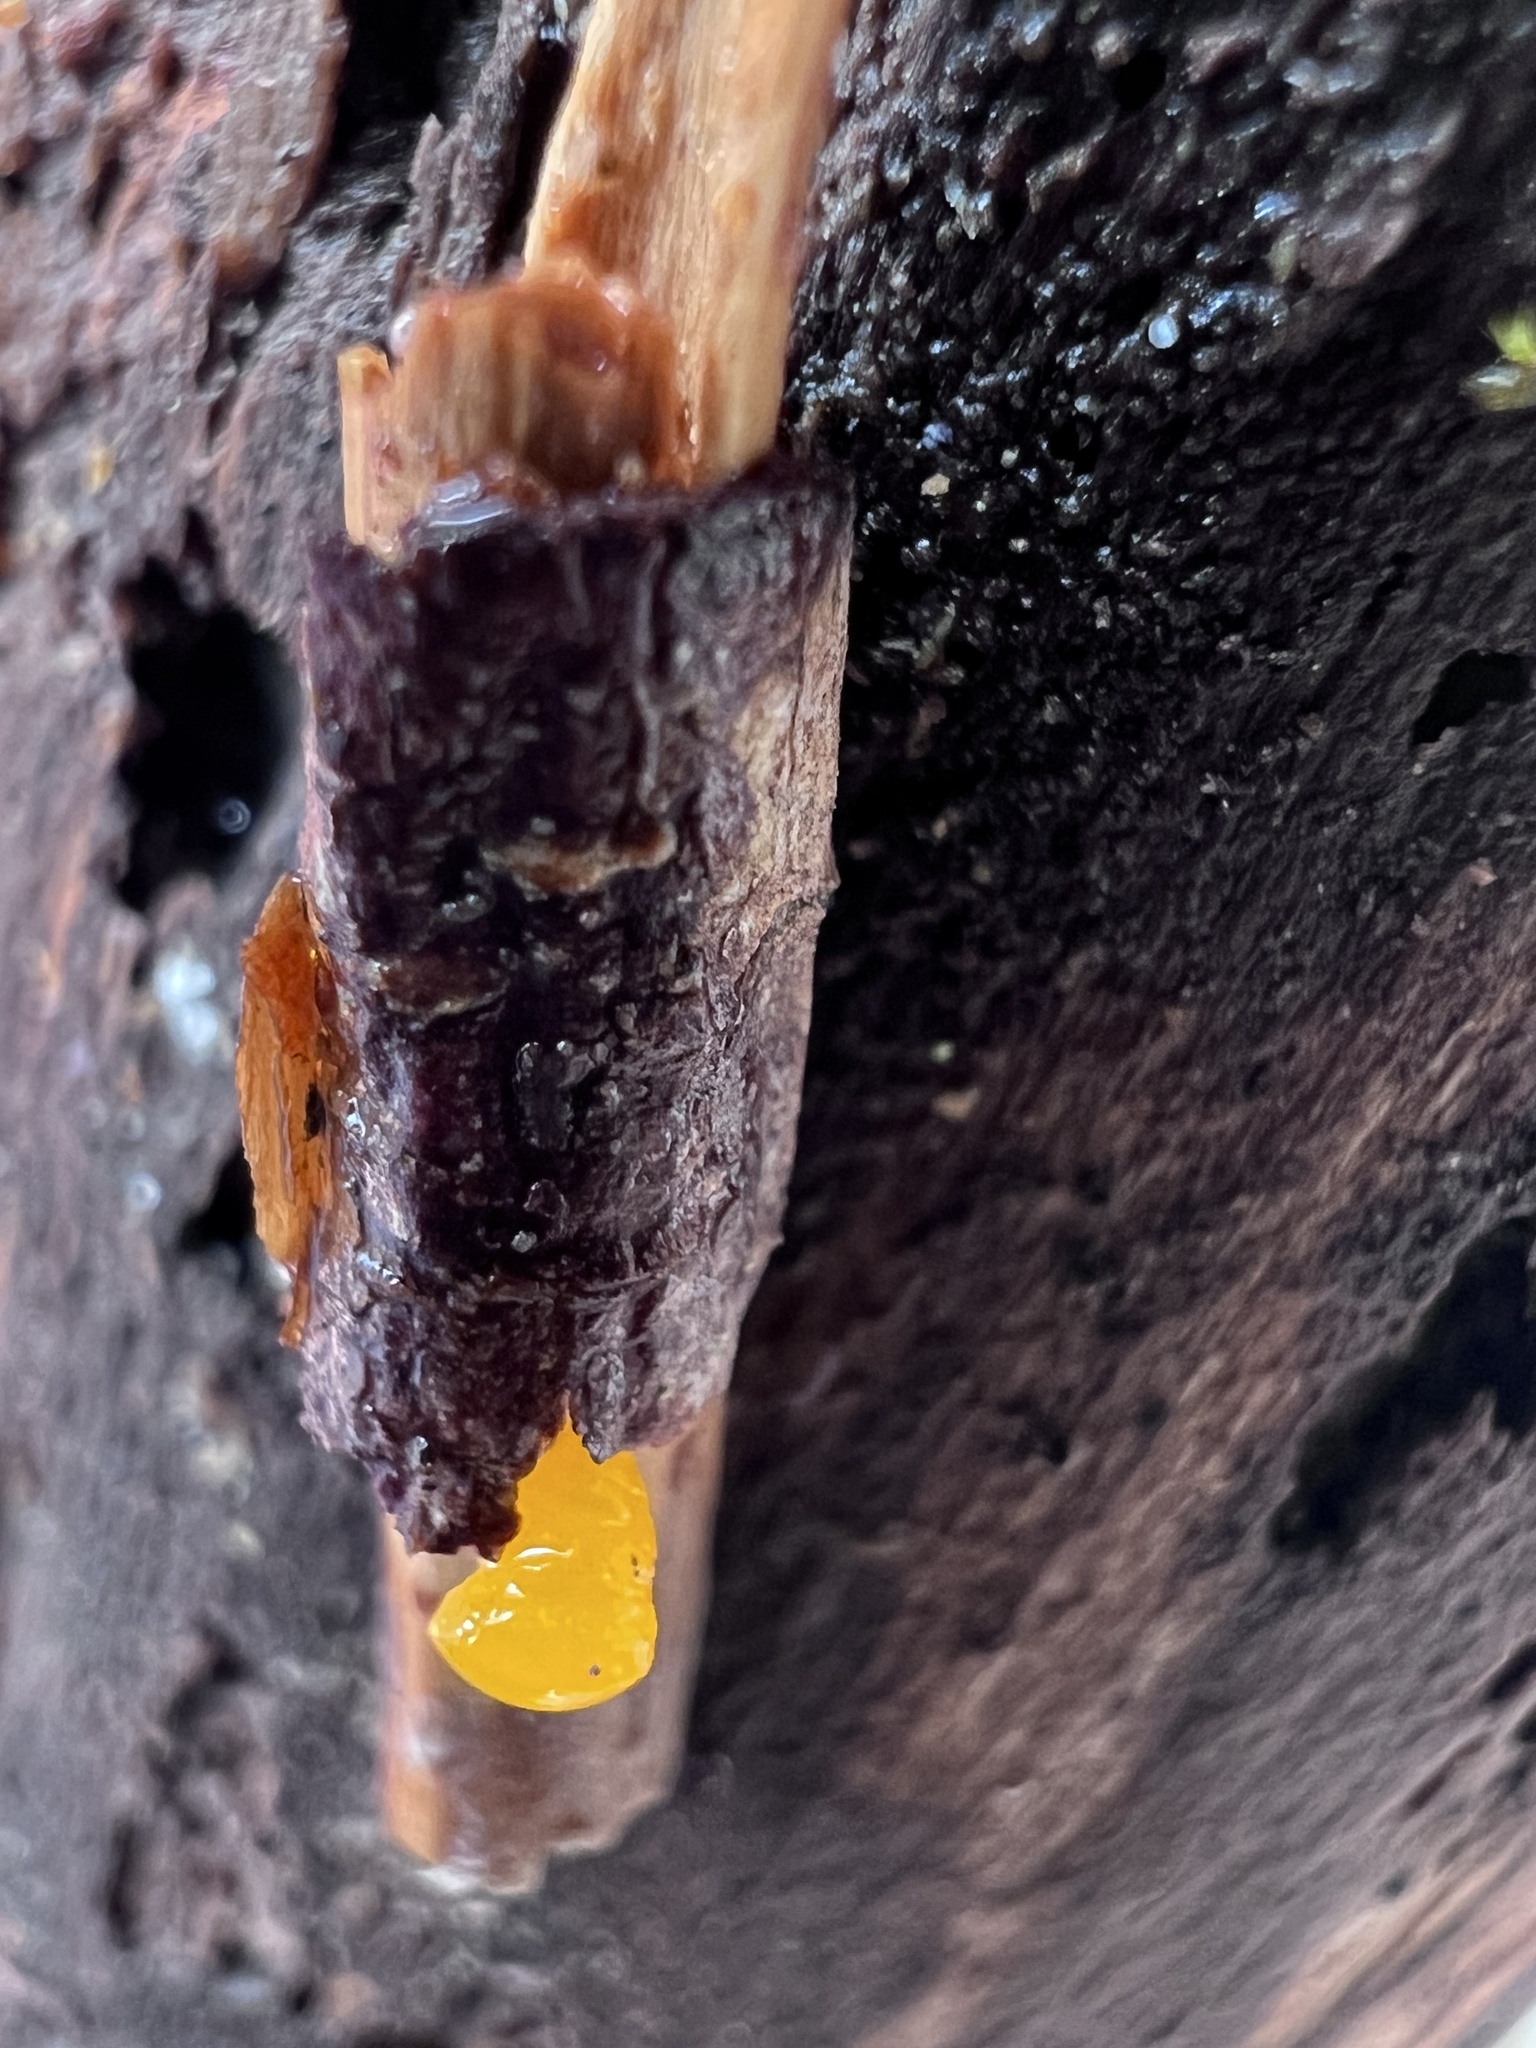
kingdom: Fungi
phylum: Basidiomycota
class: Dacrymycetes
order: Dacrymycetales
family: Dacrymycetaceae
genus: Dacrymyces
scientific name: Dacrymyces capitatus
